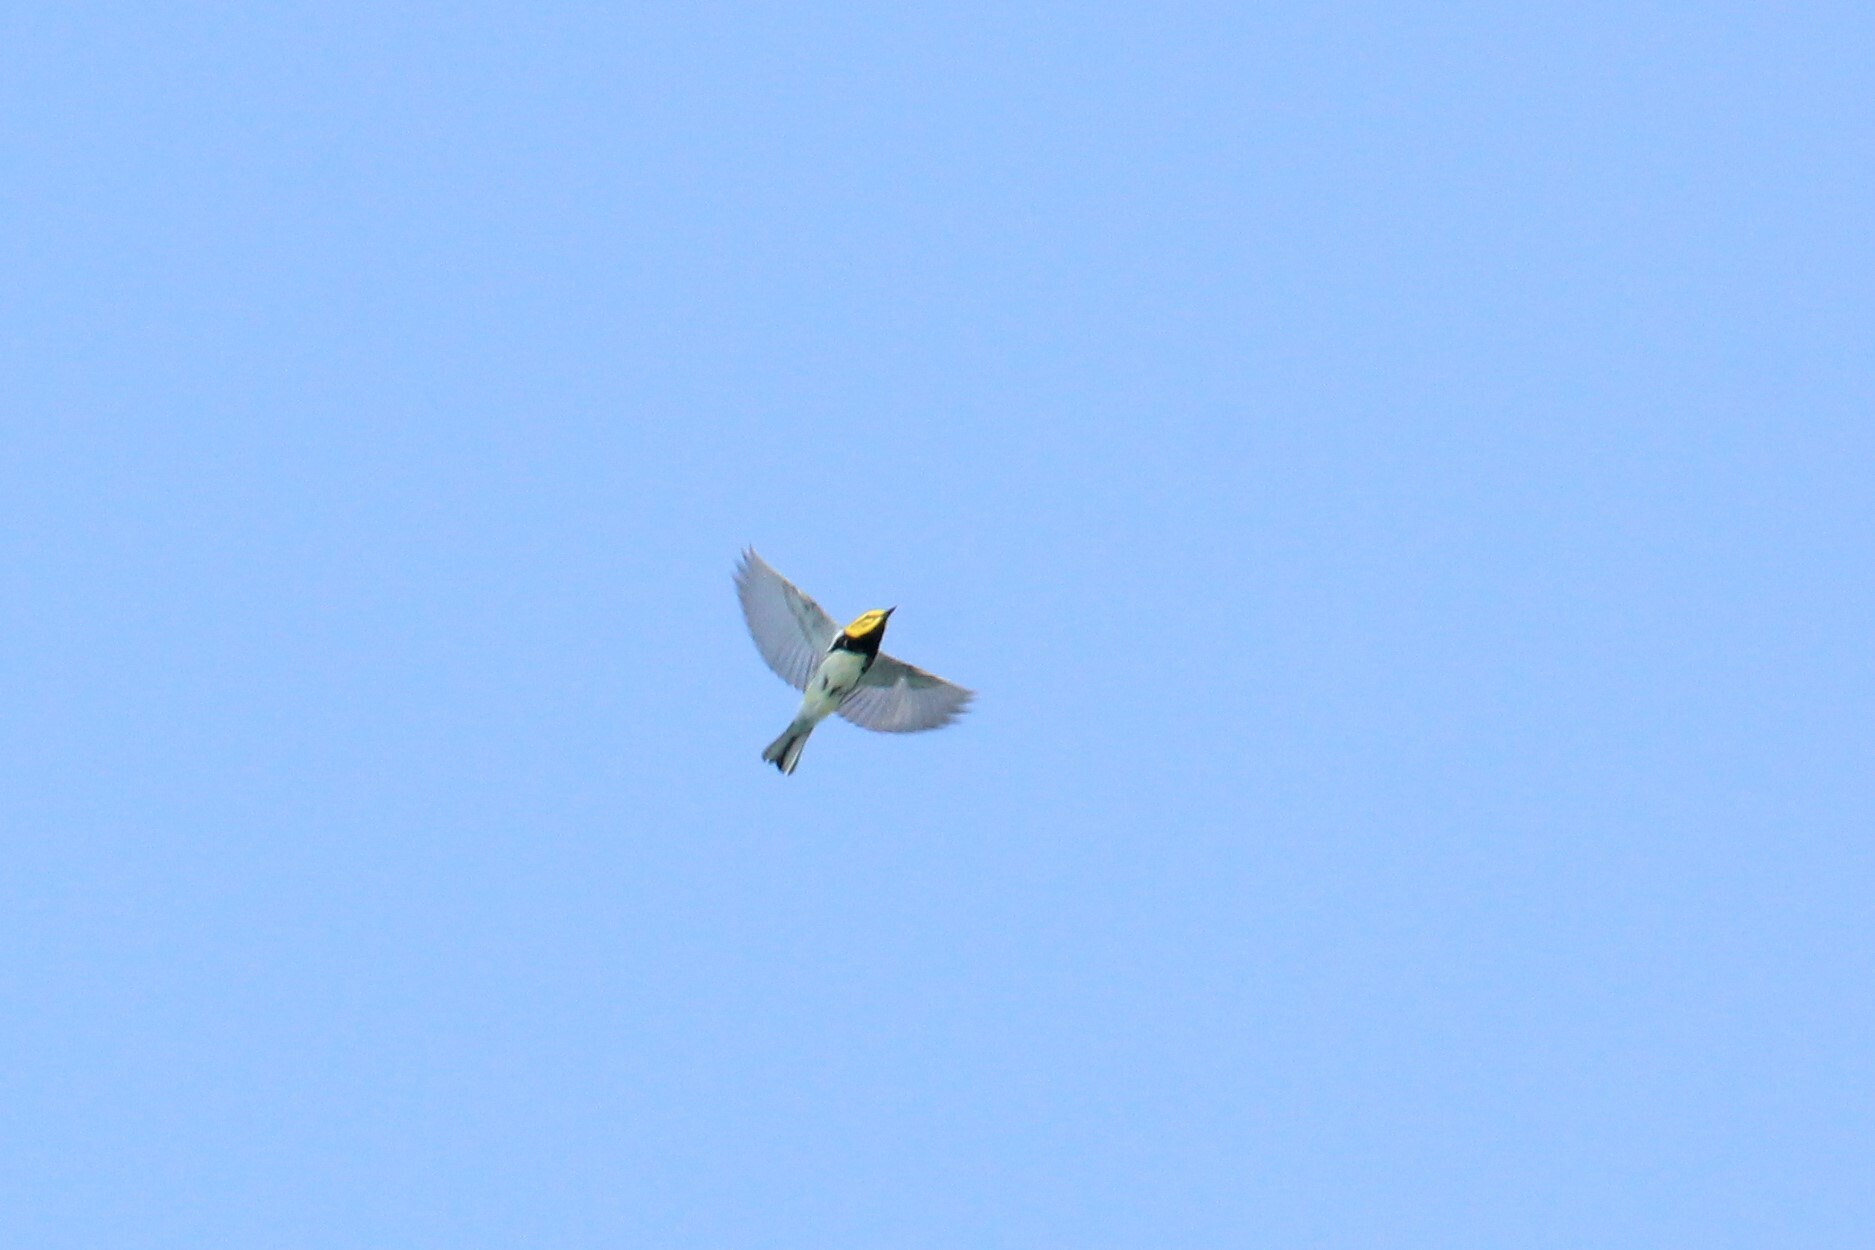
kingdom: Animalia
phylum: Chordata
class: Aves
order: Passeriformes
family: Parulidae
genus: Setophaga
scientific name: Setophaga virens
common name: Black-throated green warbler
